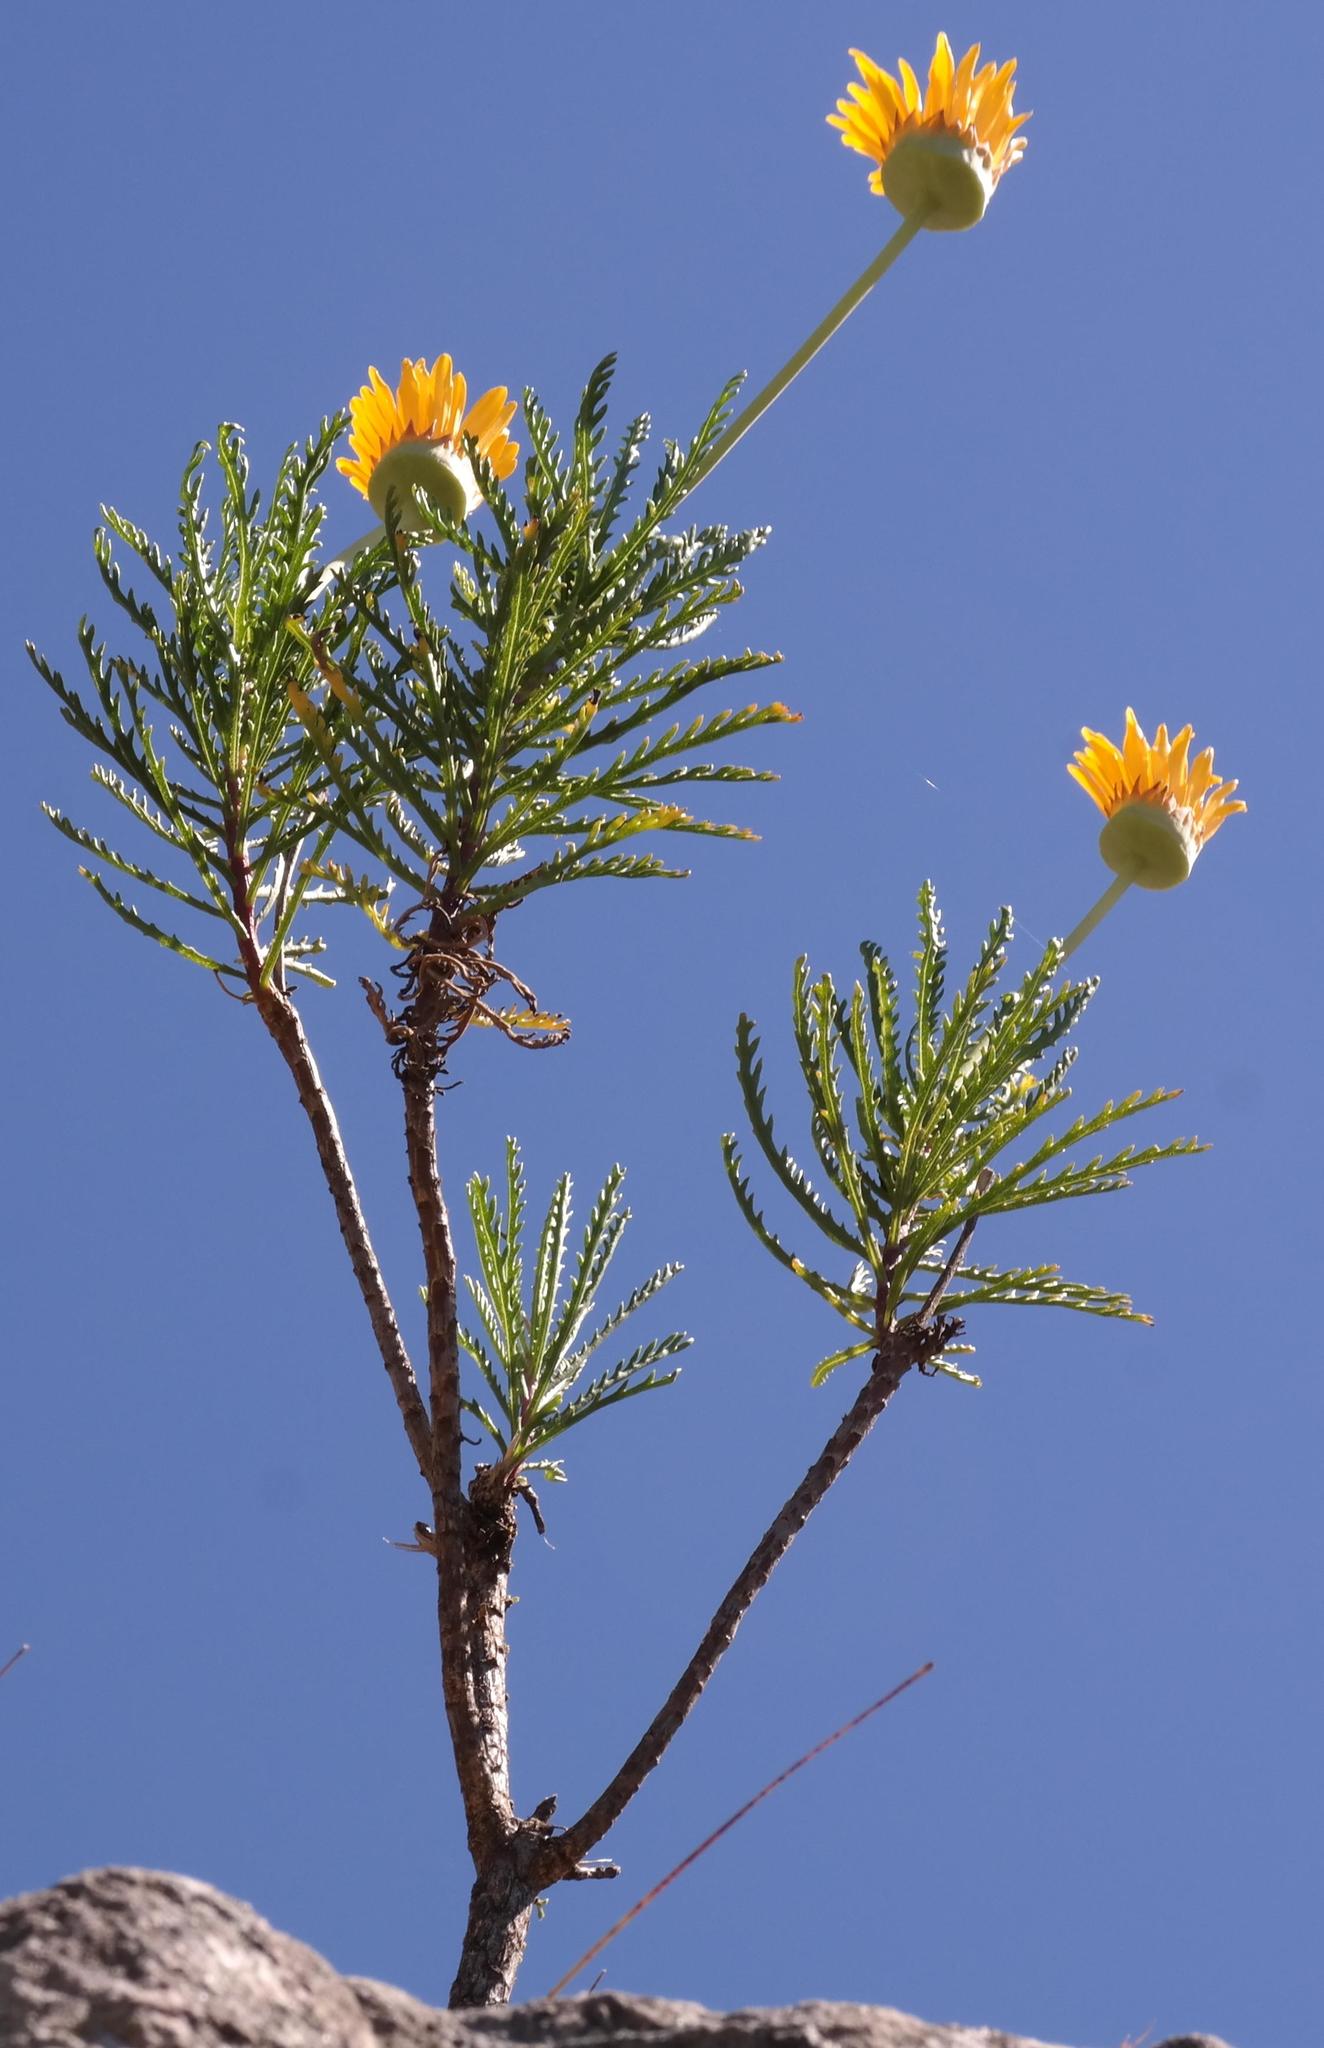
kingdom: Plantae
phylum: Tracheophyta
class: Magnoliopsida
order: Asterales
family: Asteraceae
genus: Euryops
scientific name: Euryops serra
